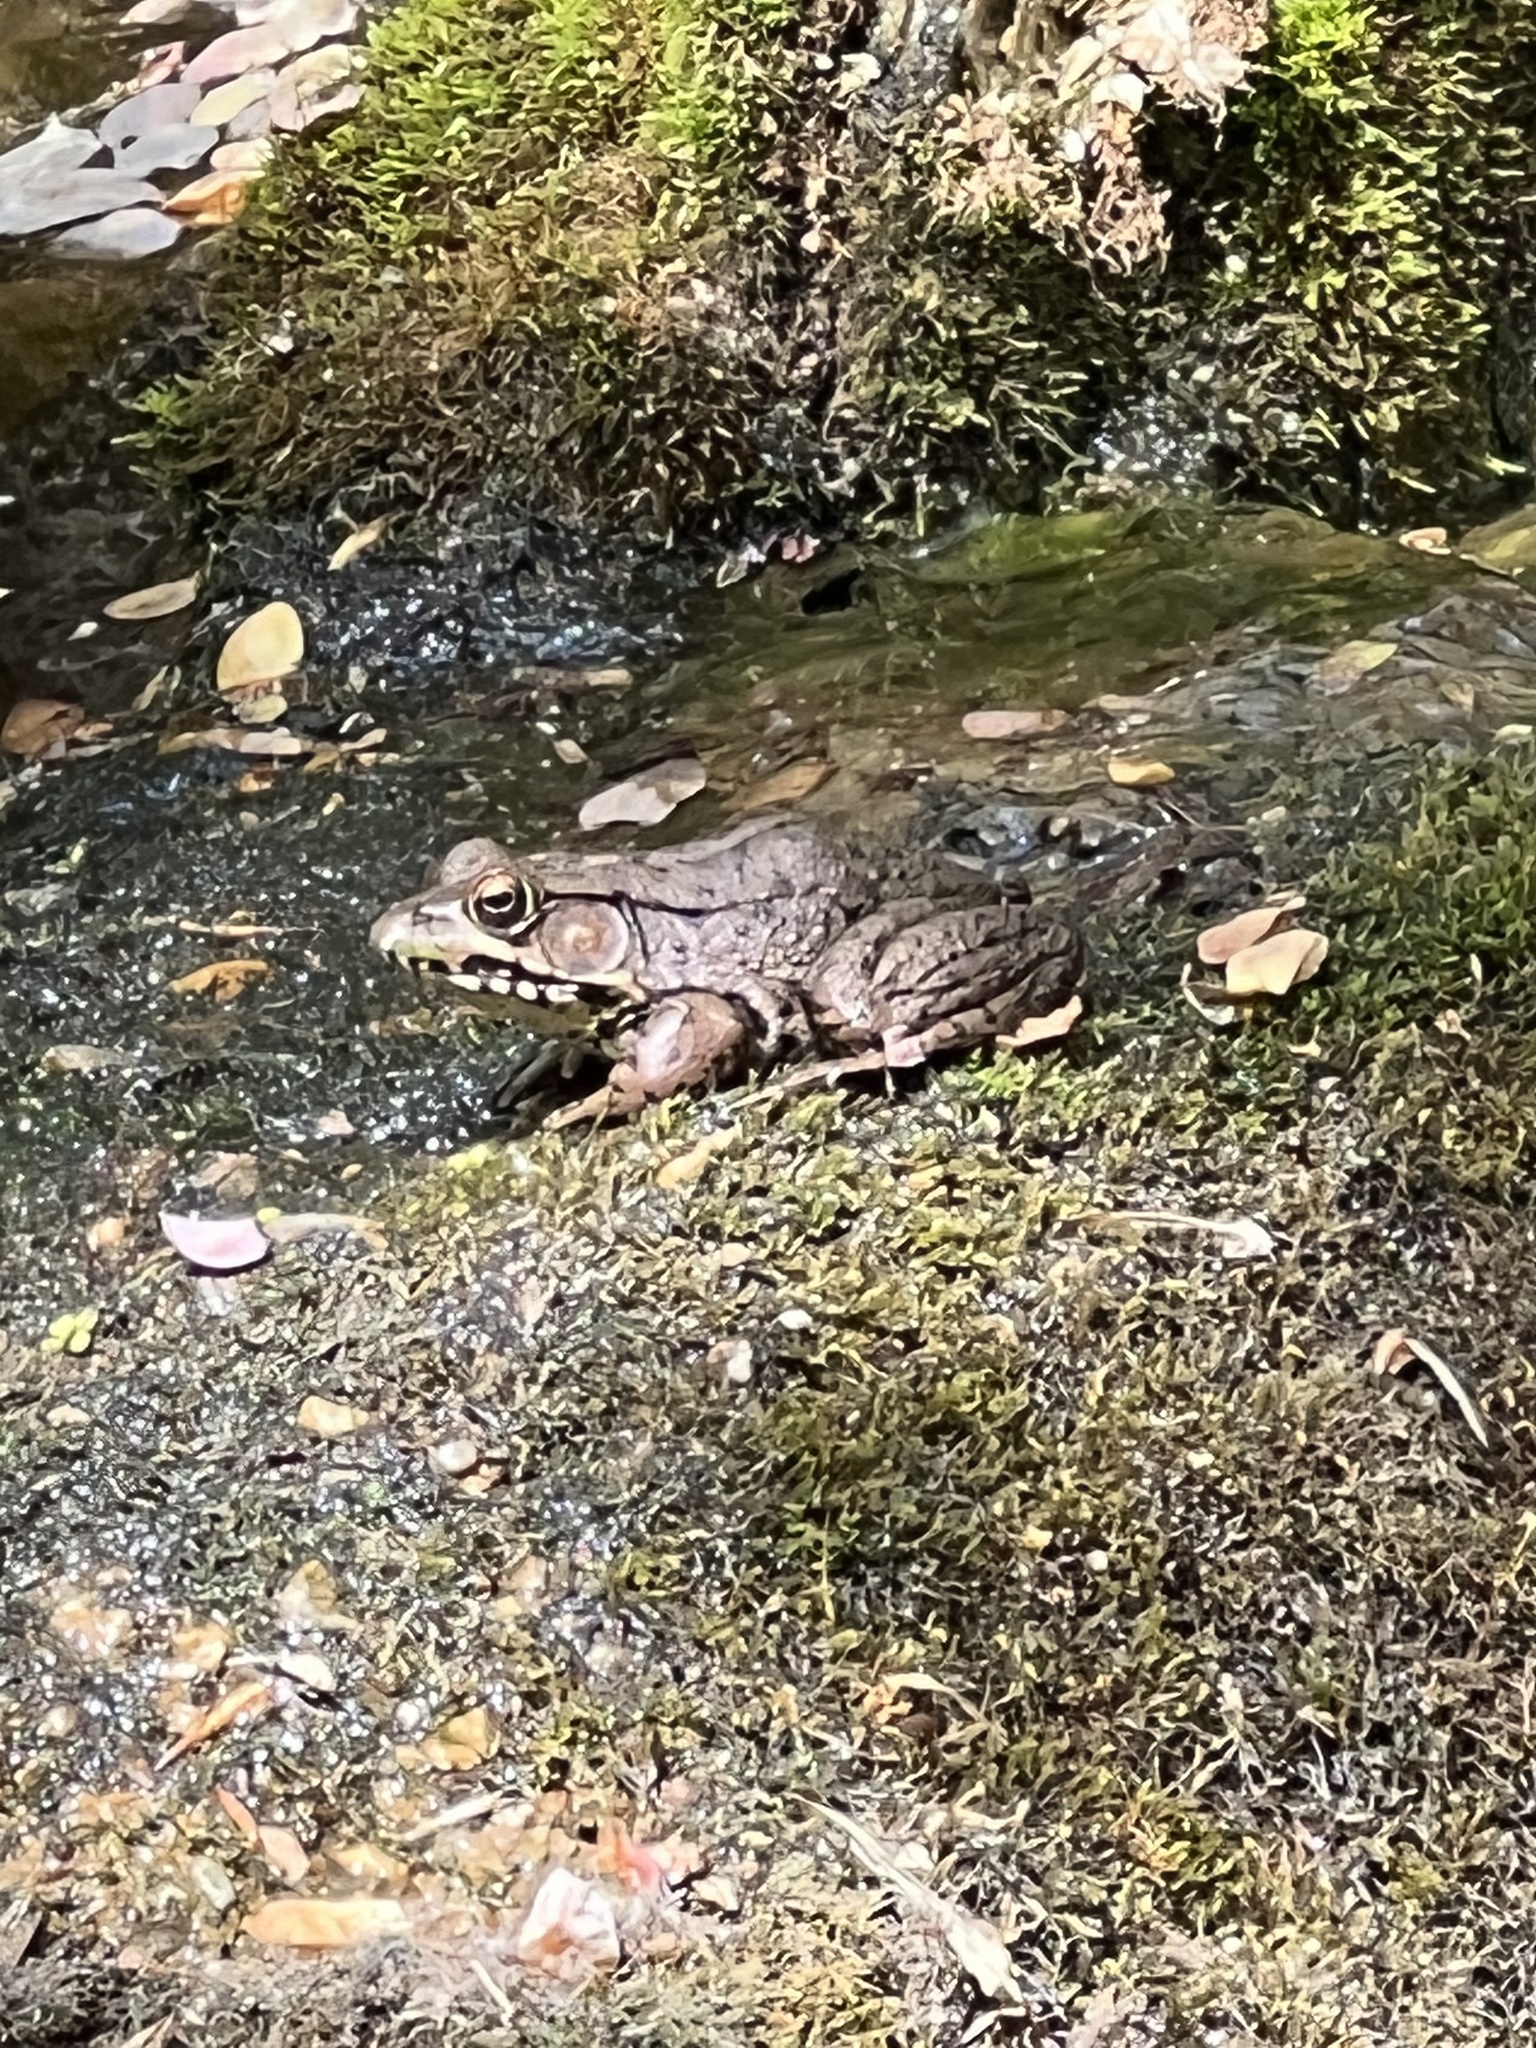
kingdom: Animalia
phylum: Chordata
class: Amphibia
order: Anura
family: Ranidae
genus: Lithobates
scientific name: Lithobates clamitans
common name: Green frog
